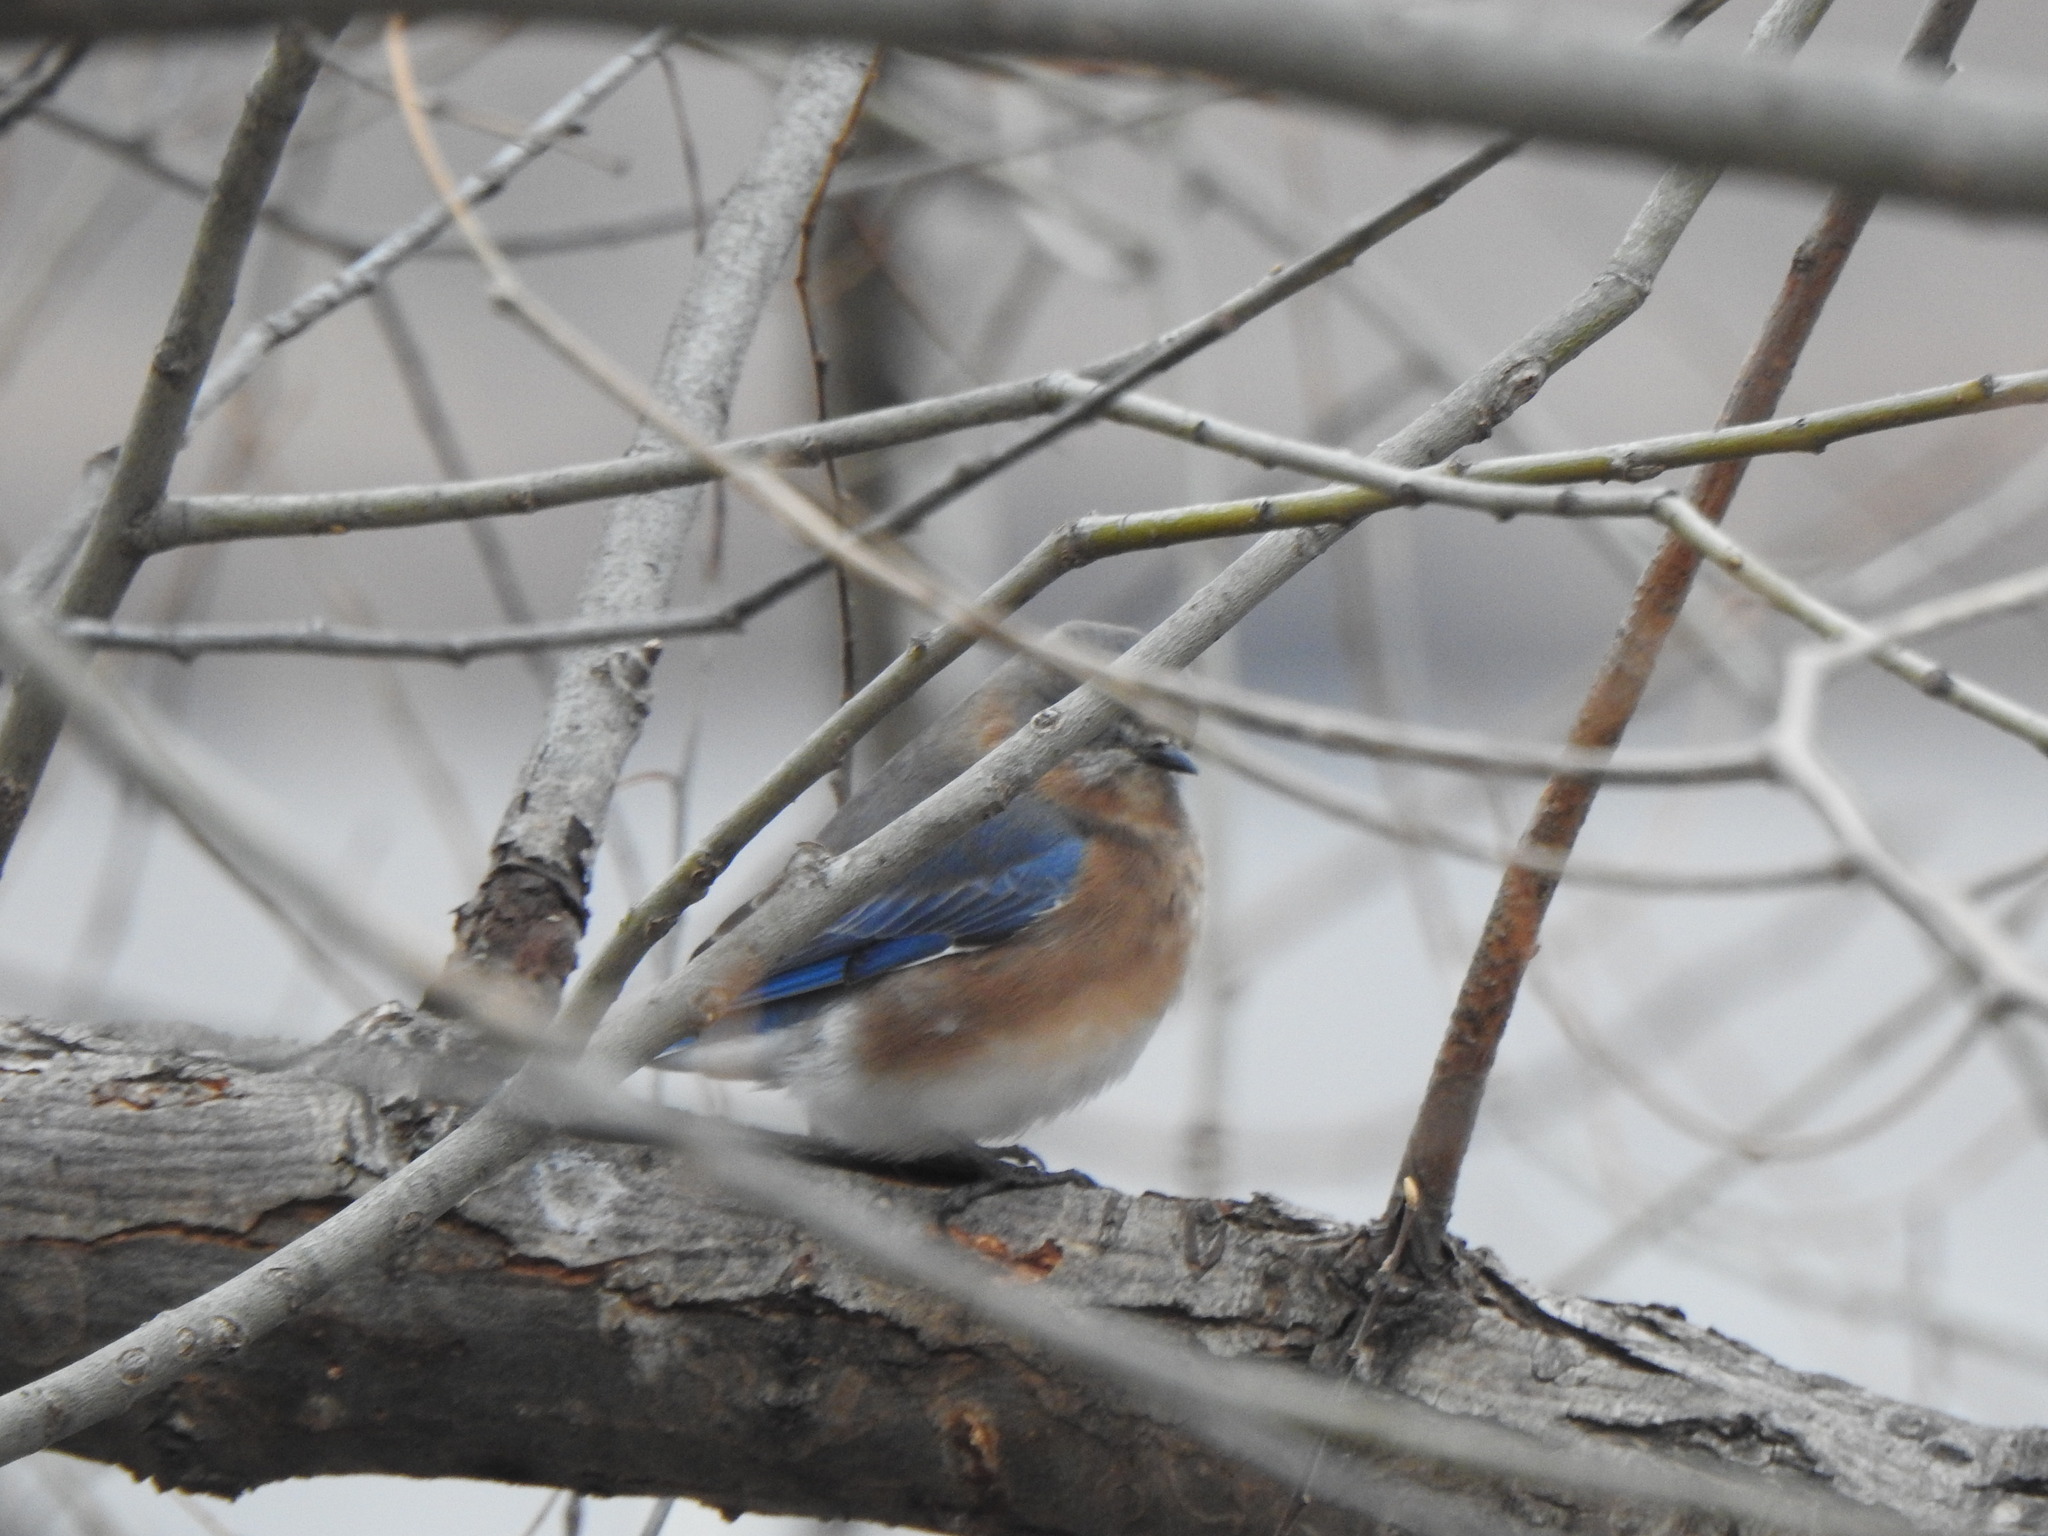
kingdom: Animalia
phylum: Chordata
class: Aves
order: Passeriformes
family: Turdidae
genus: Sialia
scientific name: Sialia sialis
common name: Eastern bluebird
